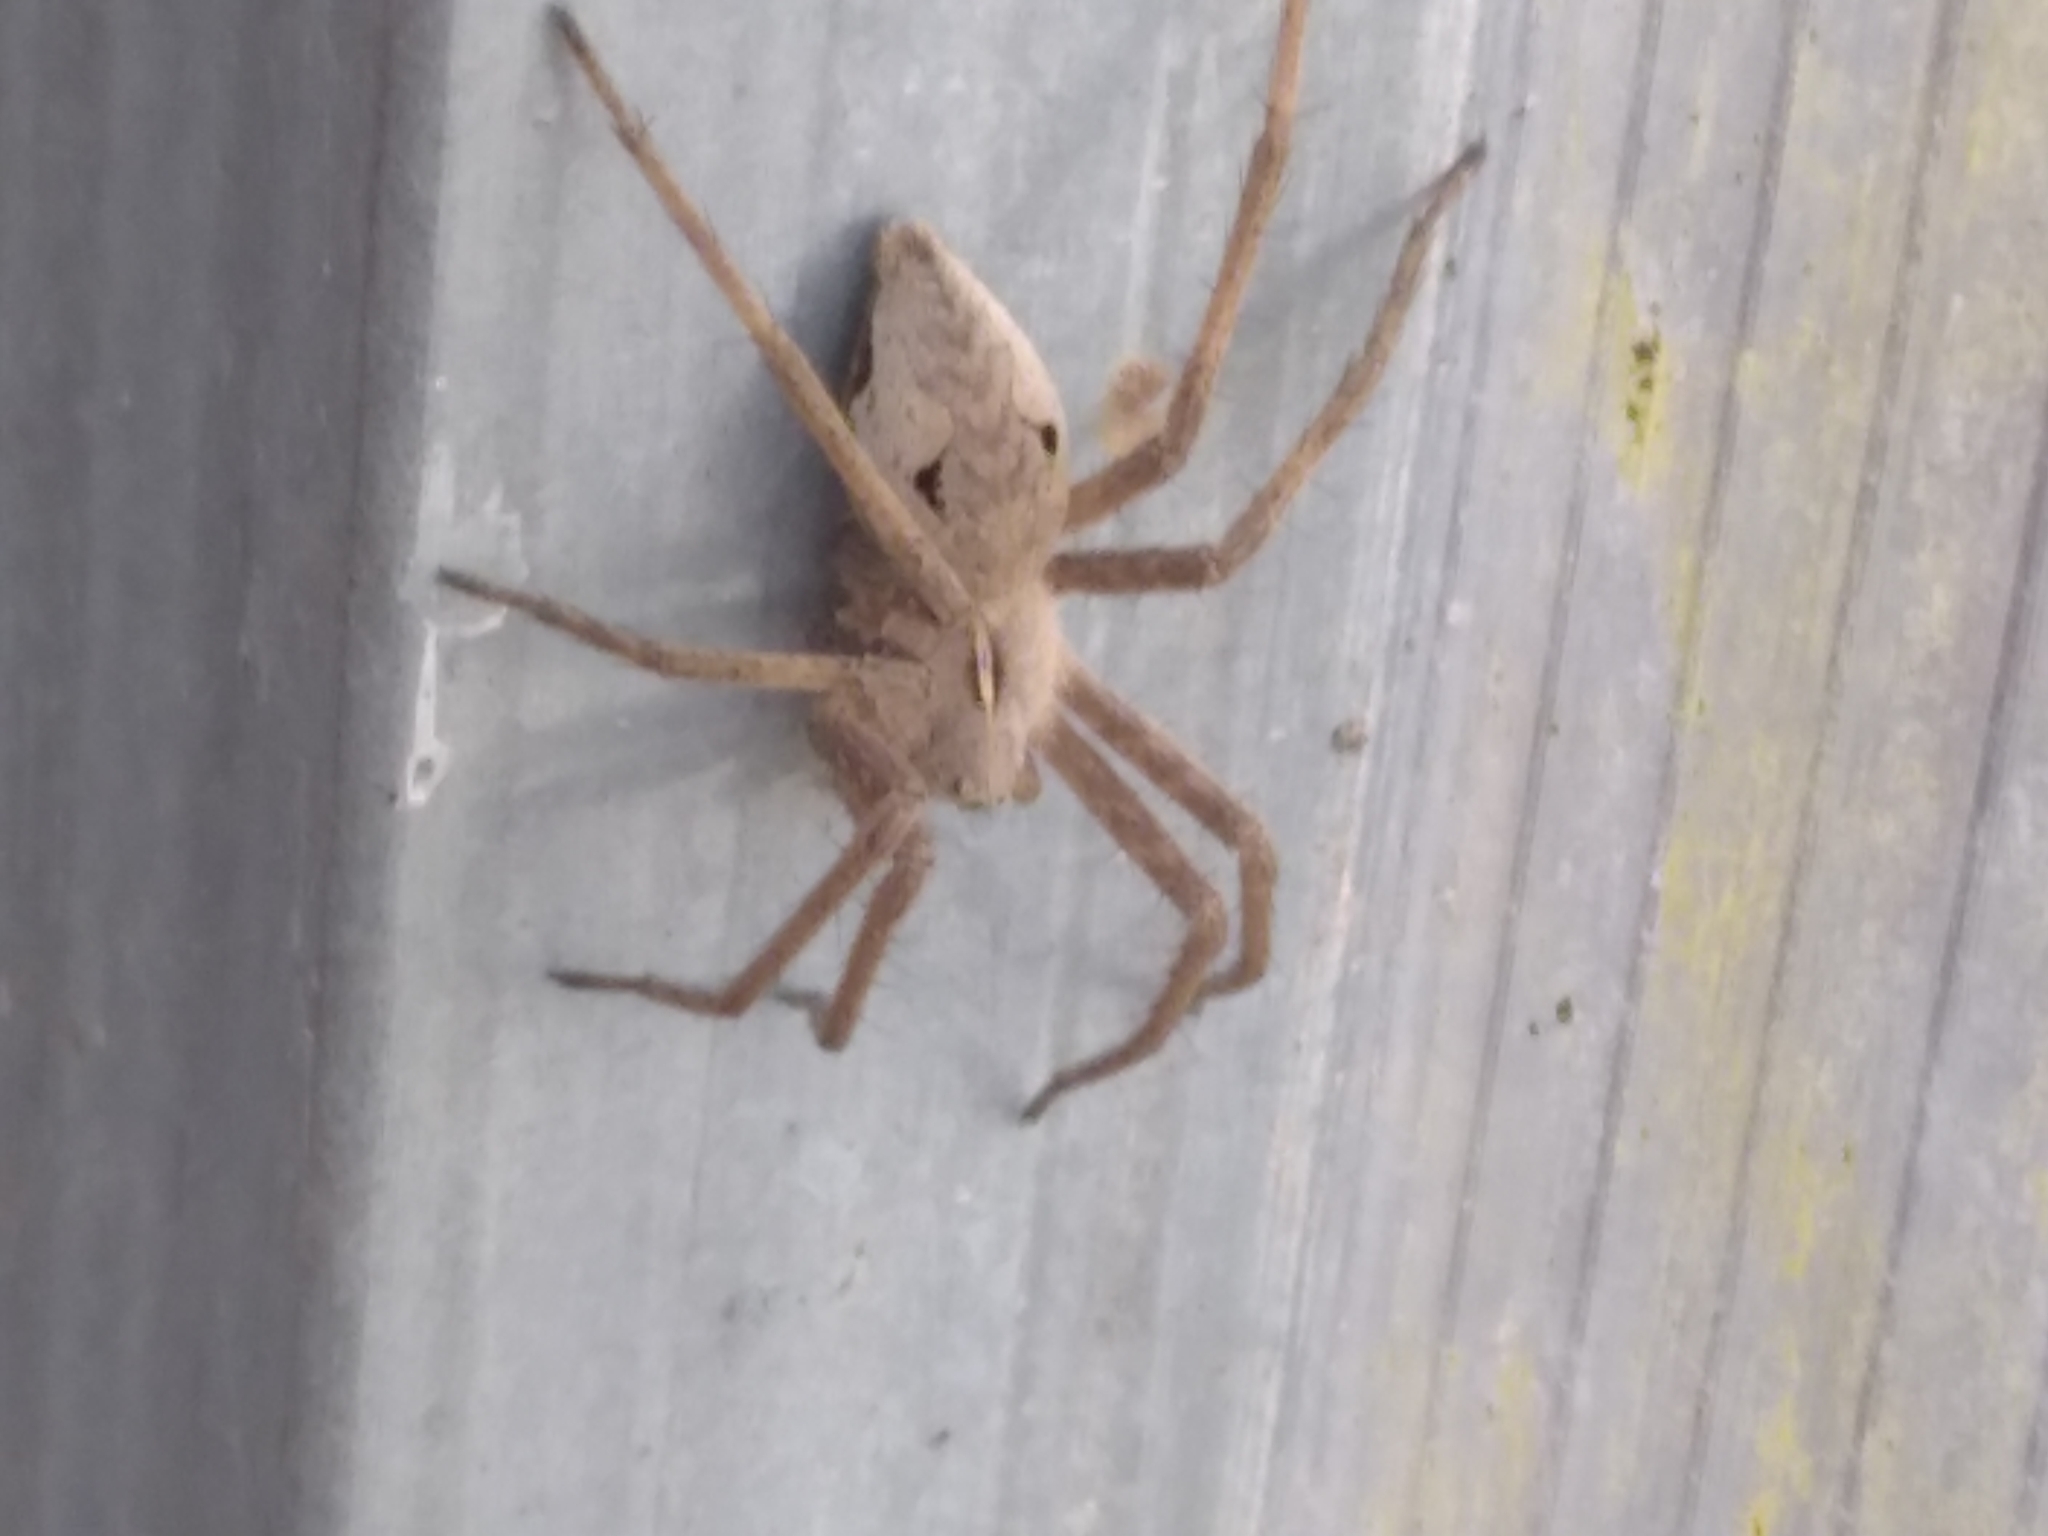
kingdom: Animalia
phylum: Arthropoda
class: Arachnida
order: Araneae
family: Pisauridae
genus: Pisaura
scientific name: Pisaura mirabilis
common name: Tent spider
